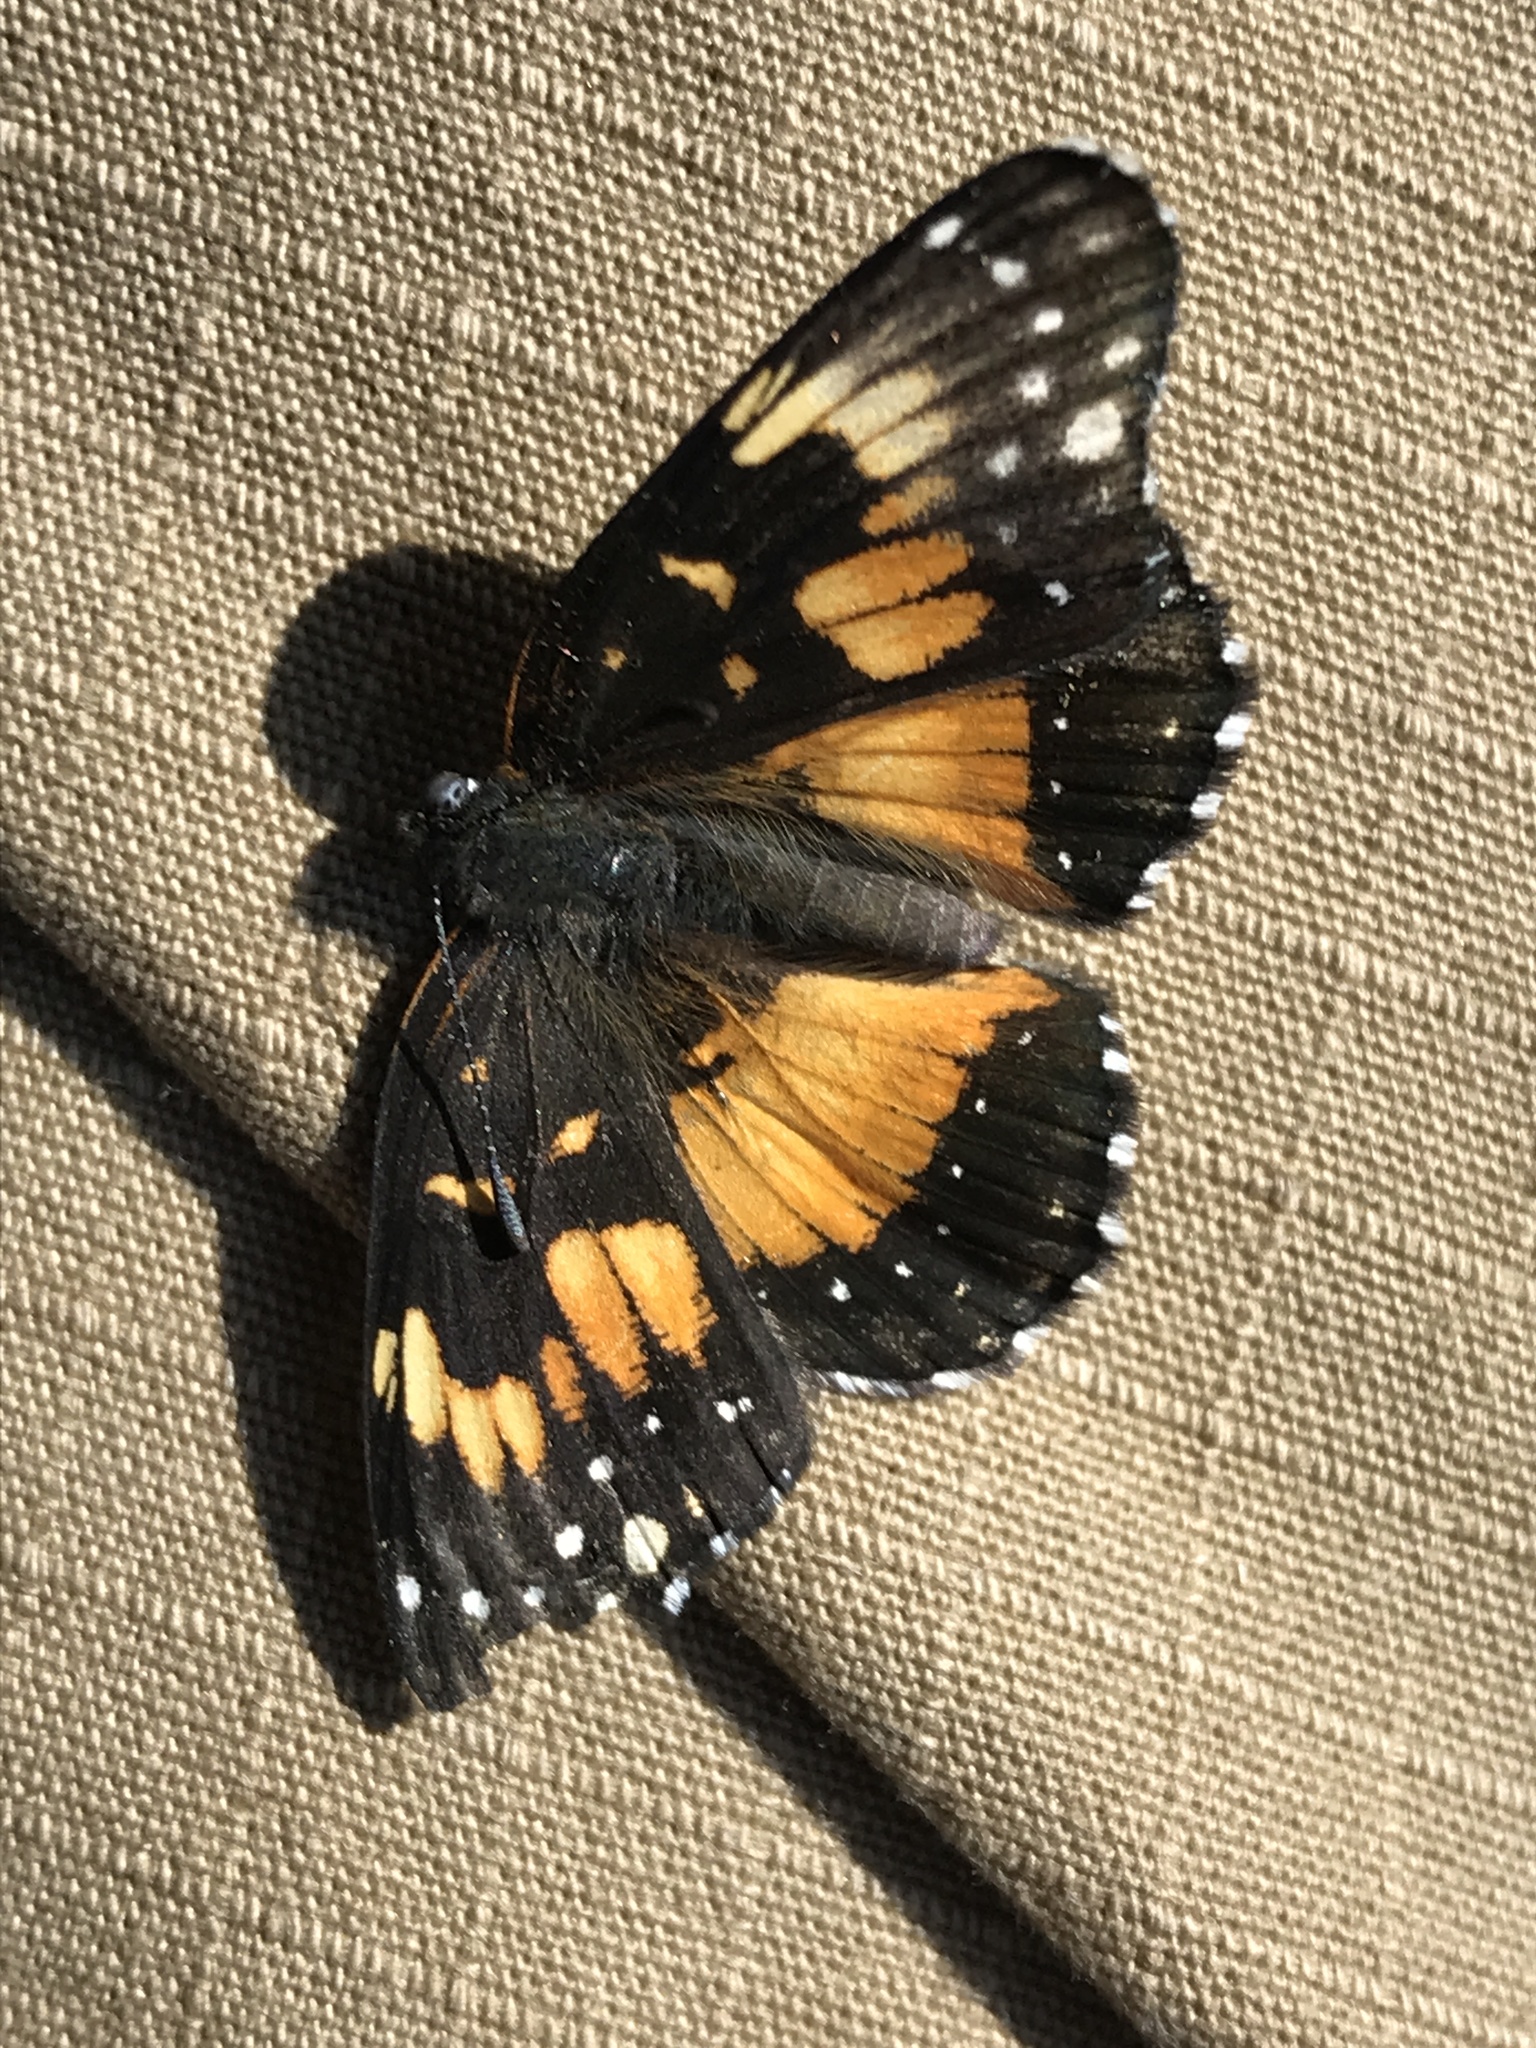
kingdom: Animalia
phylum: Arthropoda
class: Insecta
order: Lepidoptera
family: Nymphalidae
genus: Chlosyne
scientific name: Chlosyne lacinia
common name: Bordered patch
